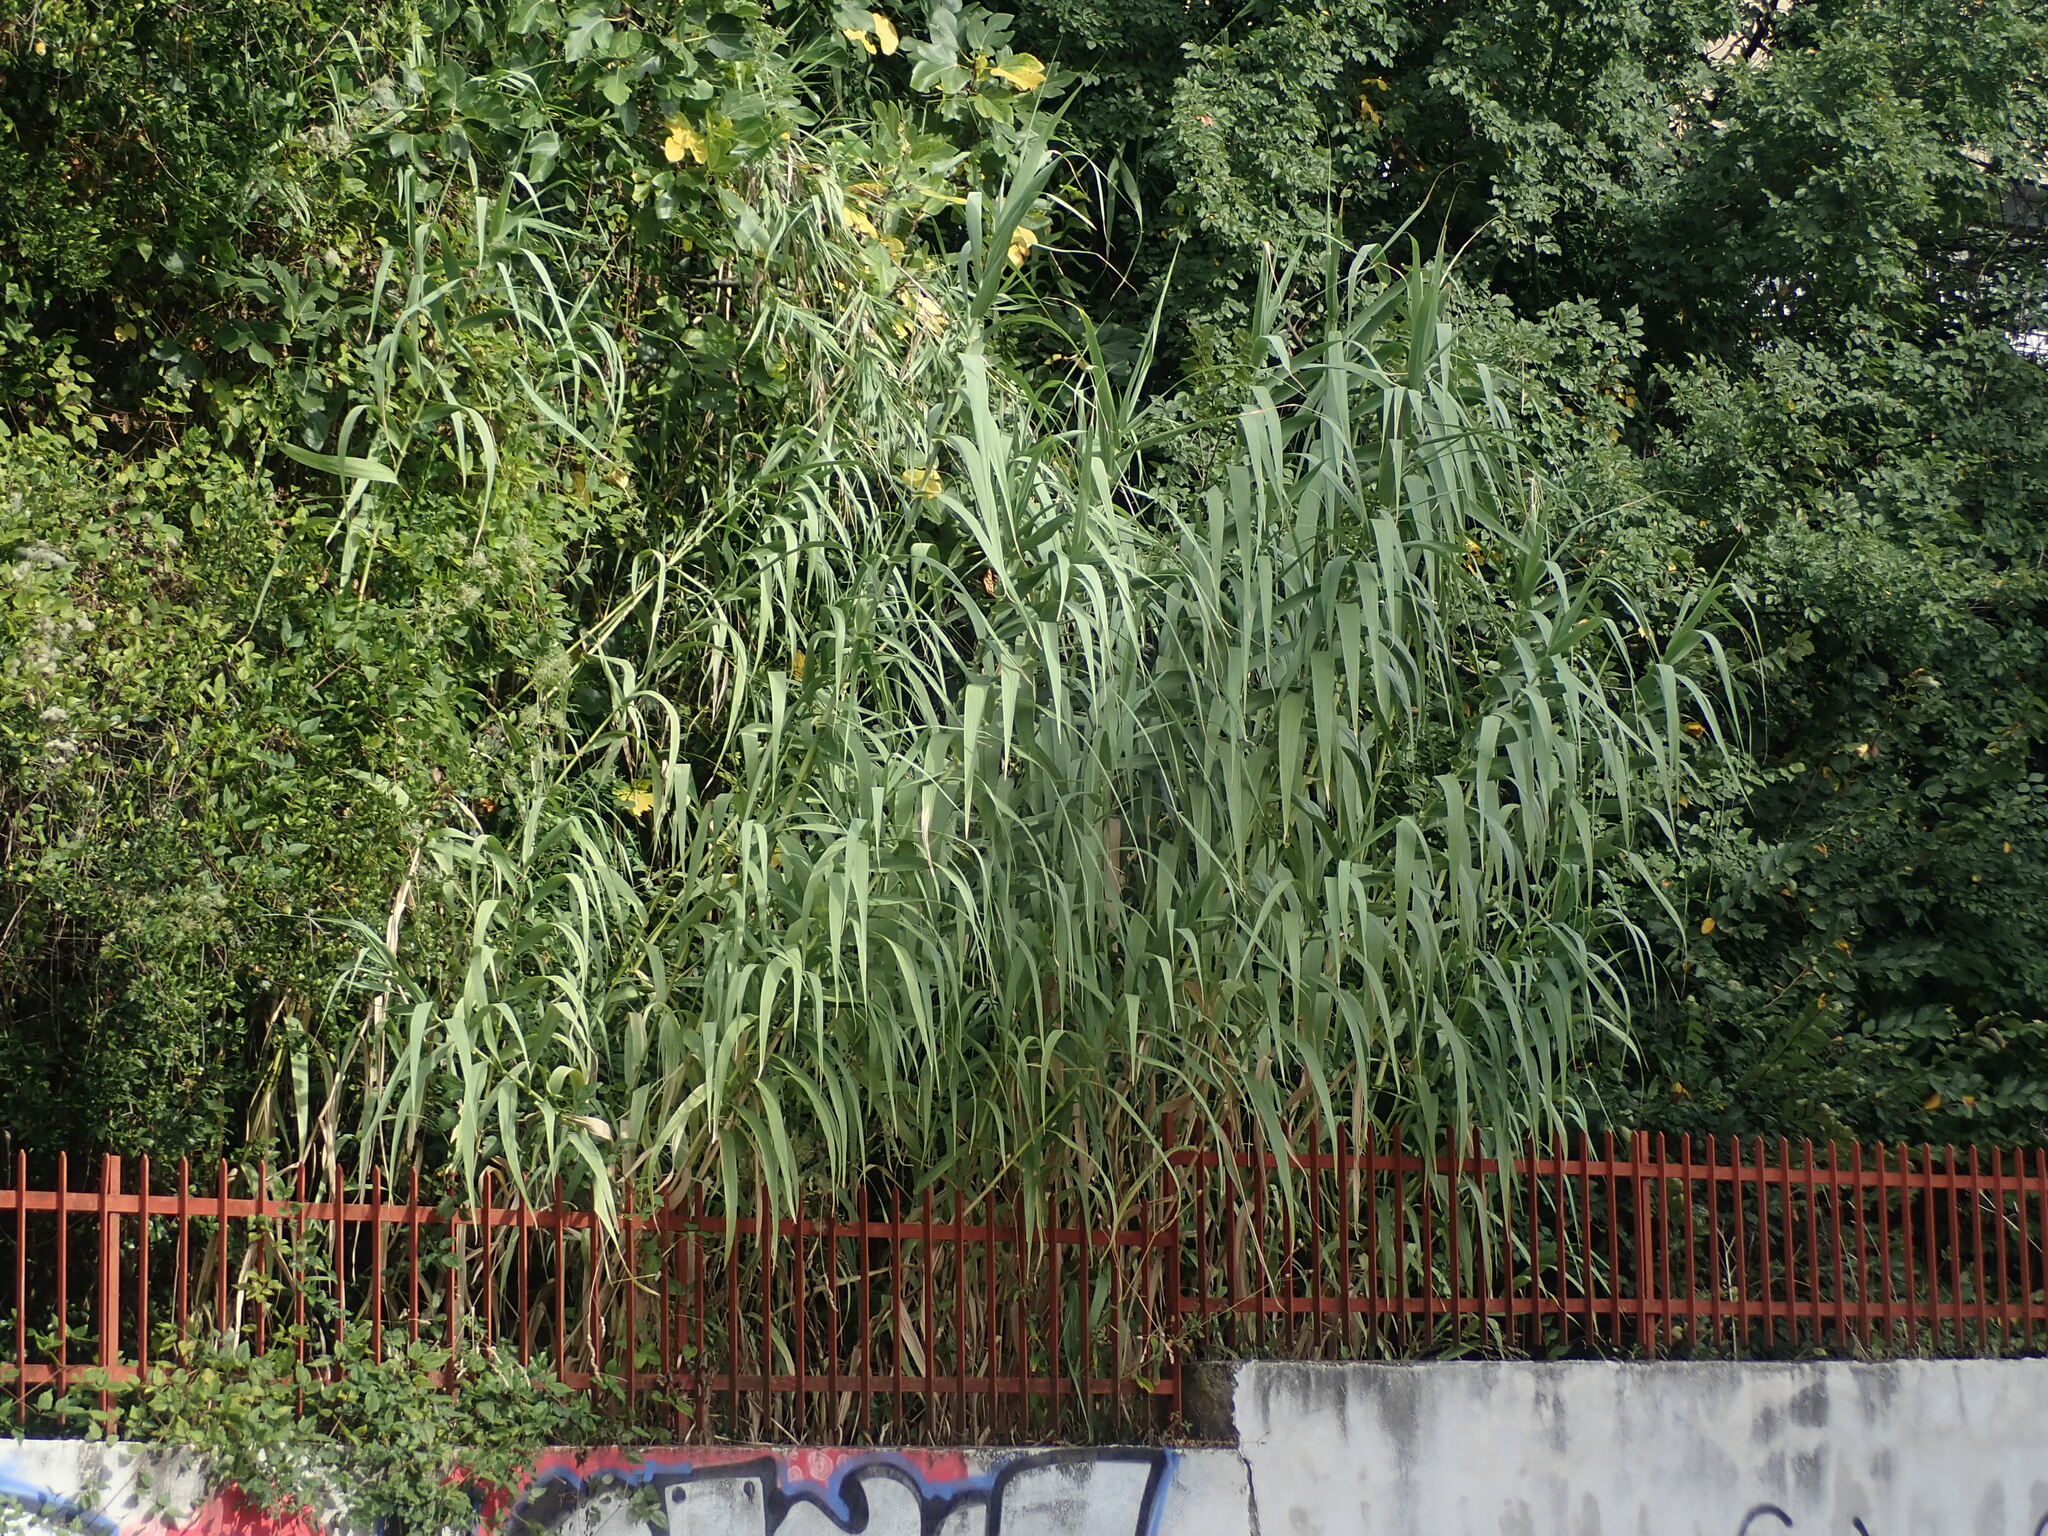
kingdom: Plantae
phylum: Tracheophyta
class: Liliopsida
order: Poales
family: Poaceae
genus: Arundo
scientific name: Arundo donax
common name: Giant reed
